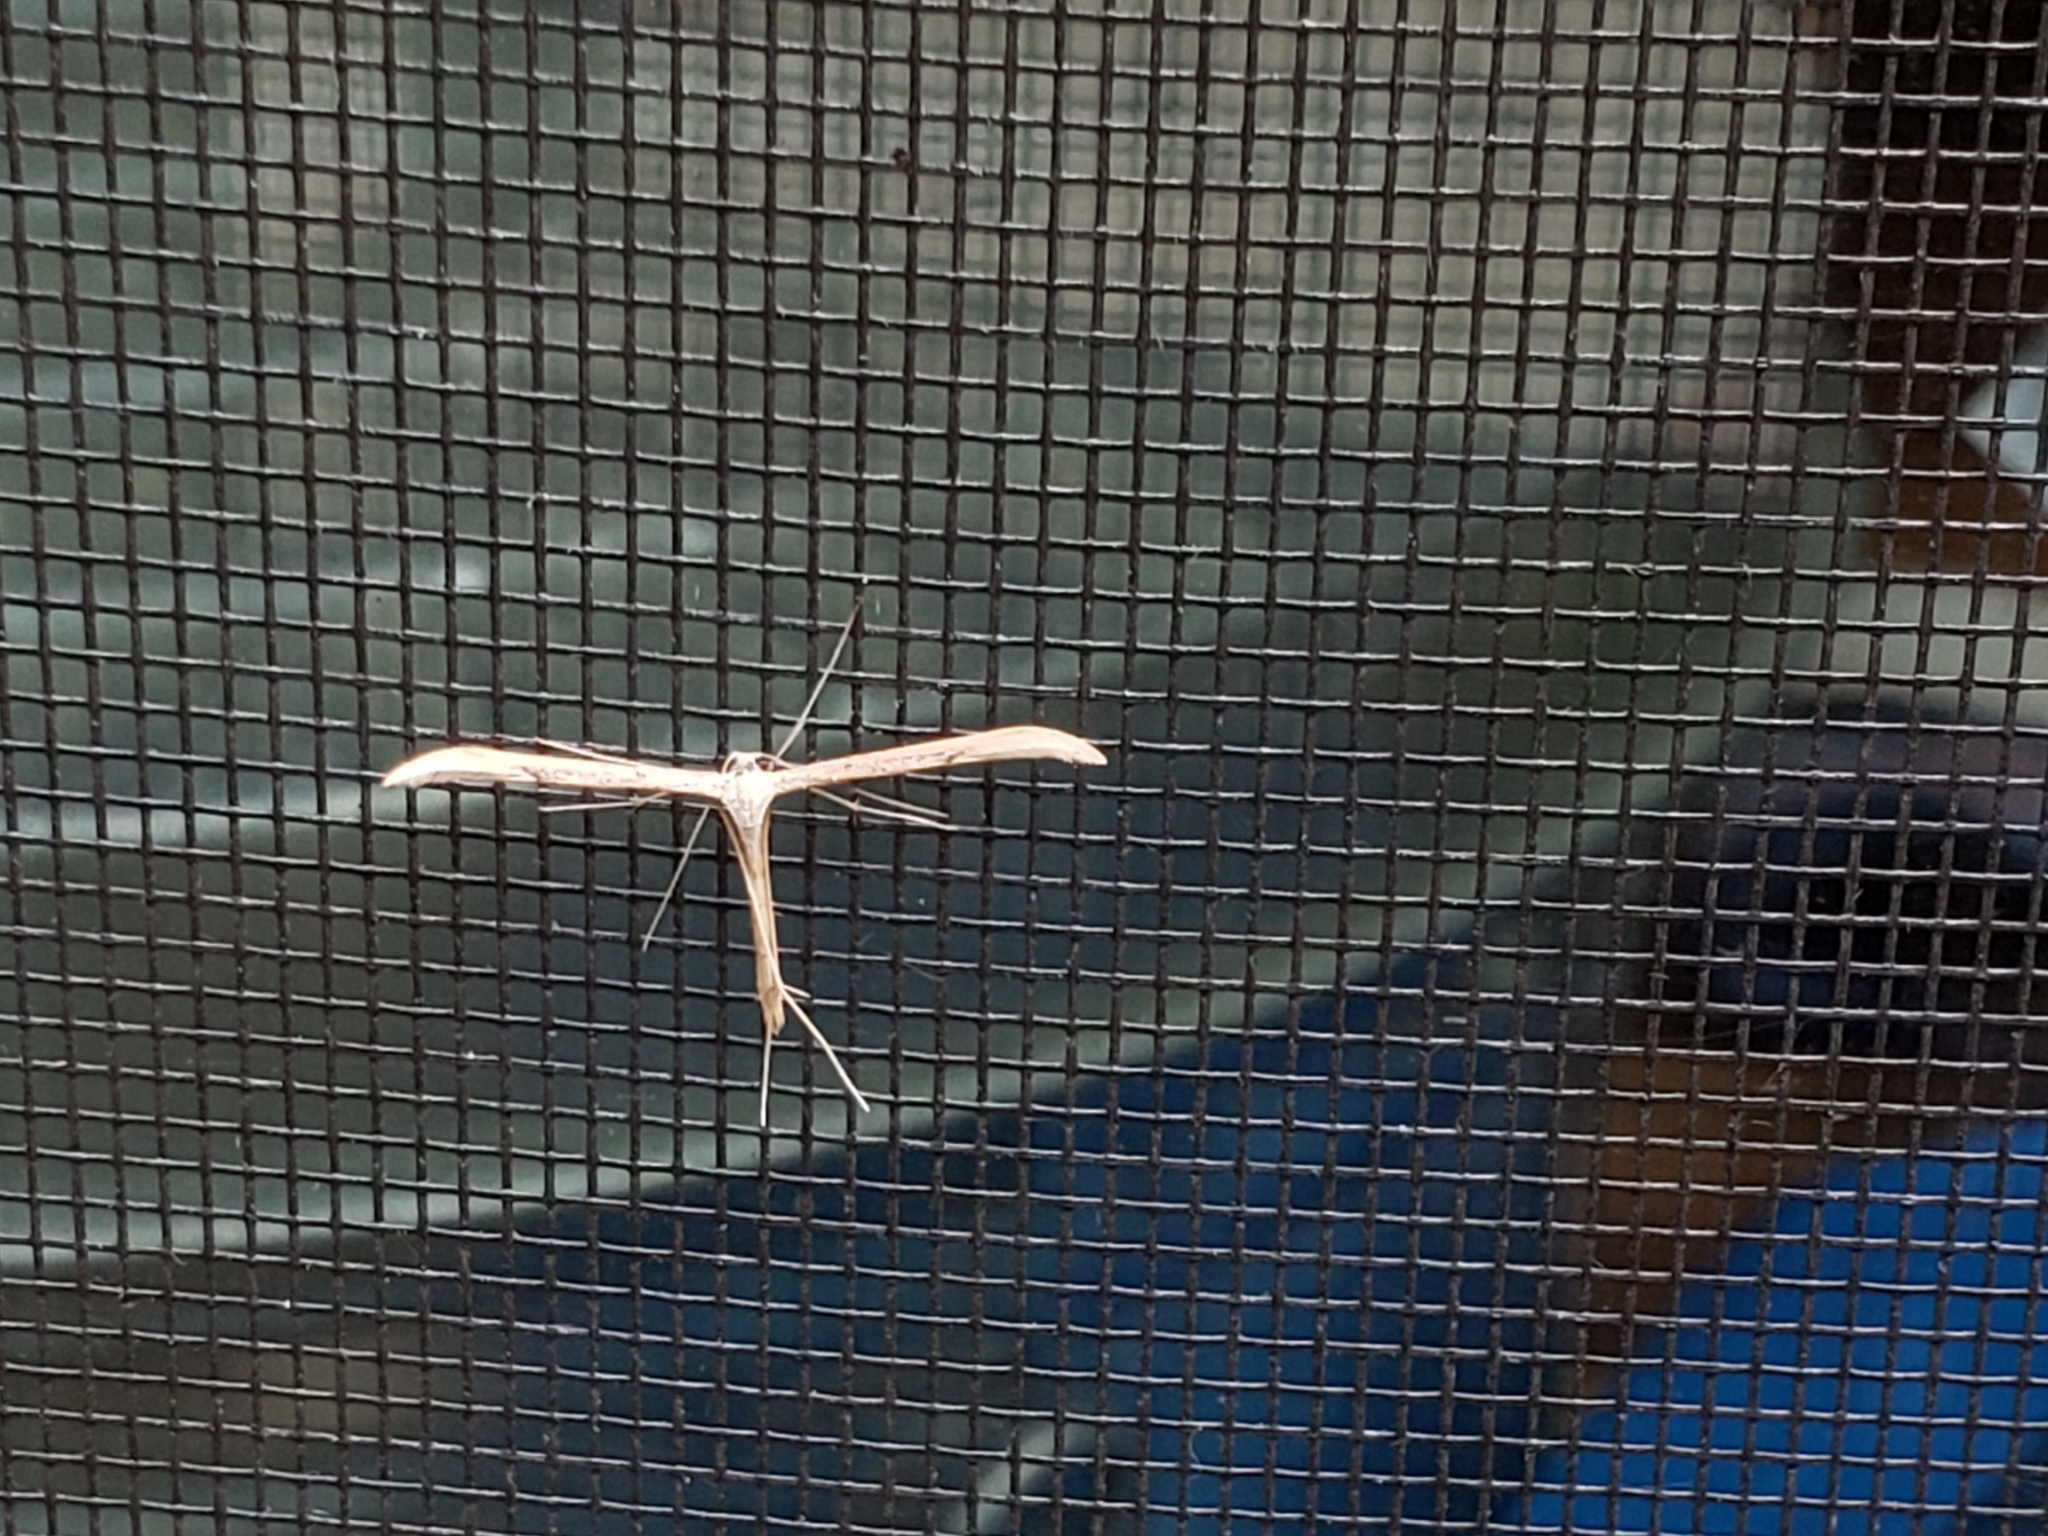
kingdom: Animalia
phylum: Arthropoda
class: Insecta
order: Lepidoptera
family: Pterophoridae
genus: Emmelina
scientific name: Emmelina monodactyla
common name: Common plume
